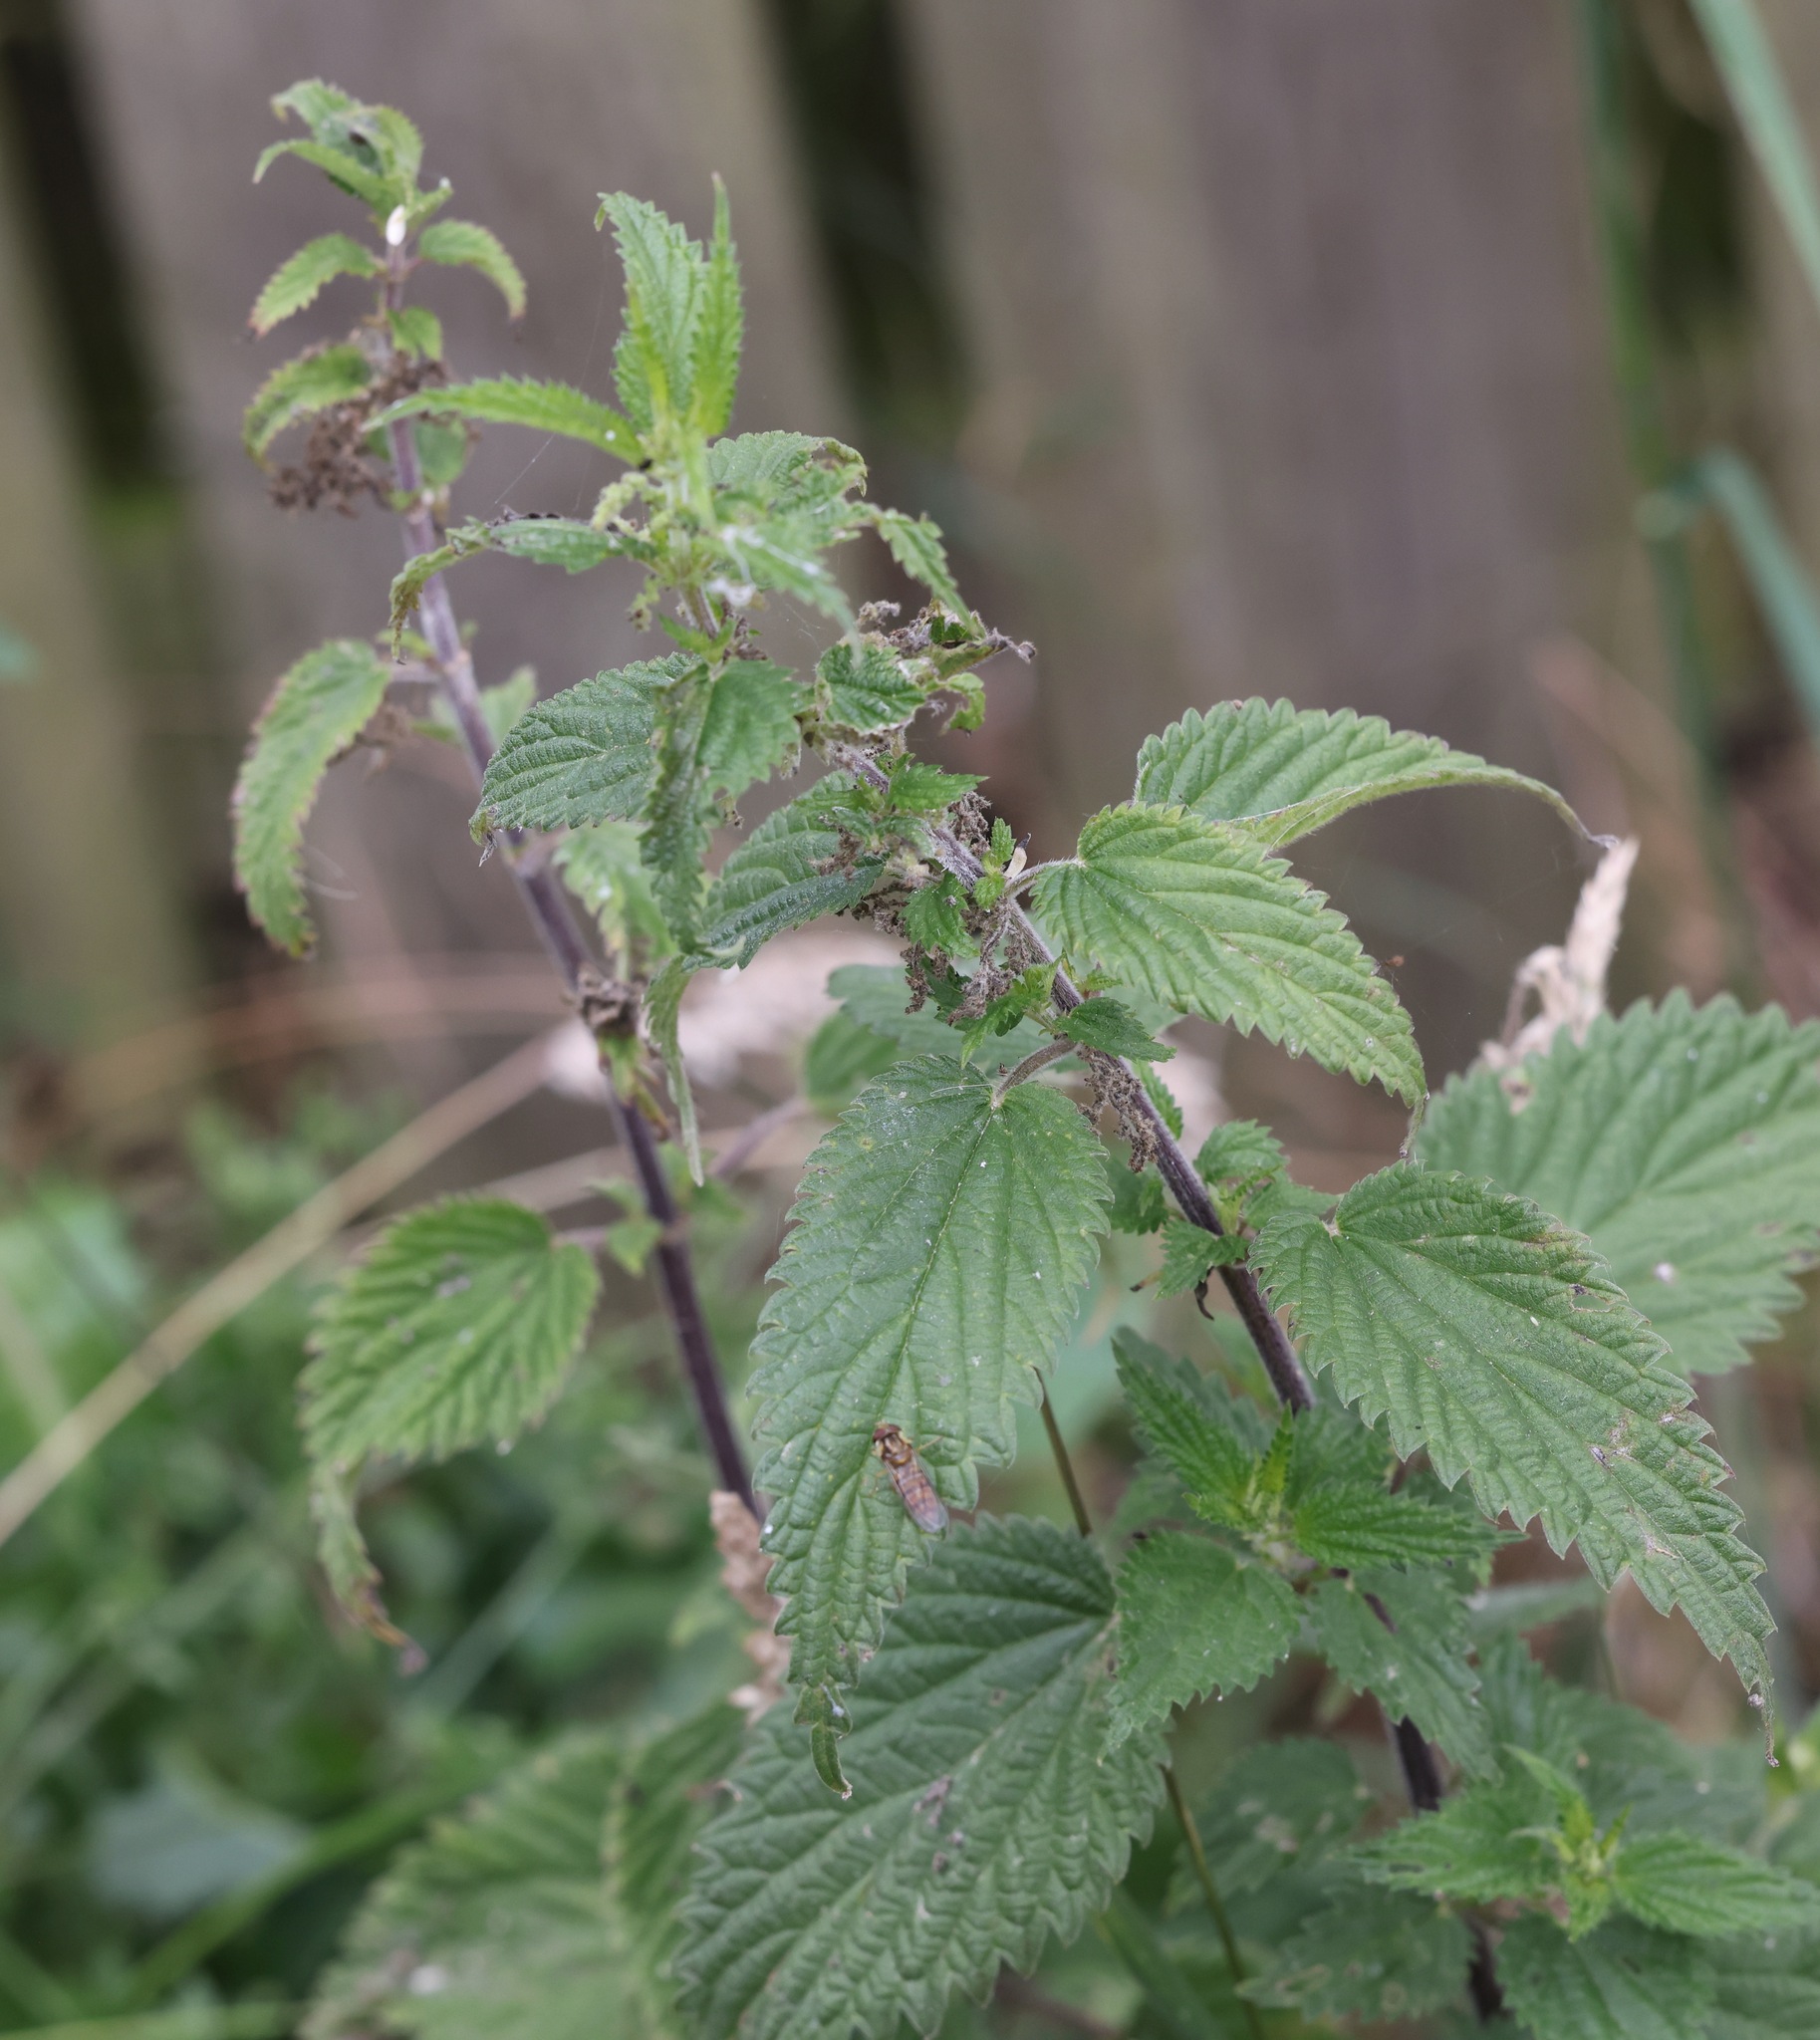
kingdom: Plantae
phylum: Tracheophyta
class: Magnoliopsida
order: Rosales
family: Urticaceae
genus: Urtica
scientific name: Urtica dioica
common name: Common nettle
